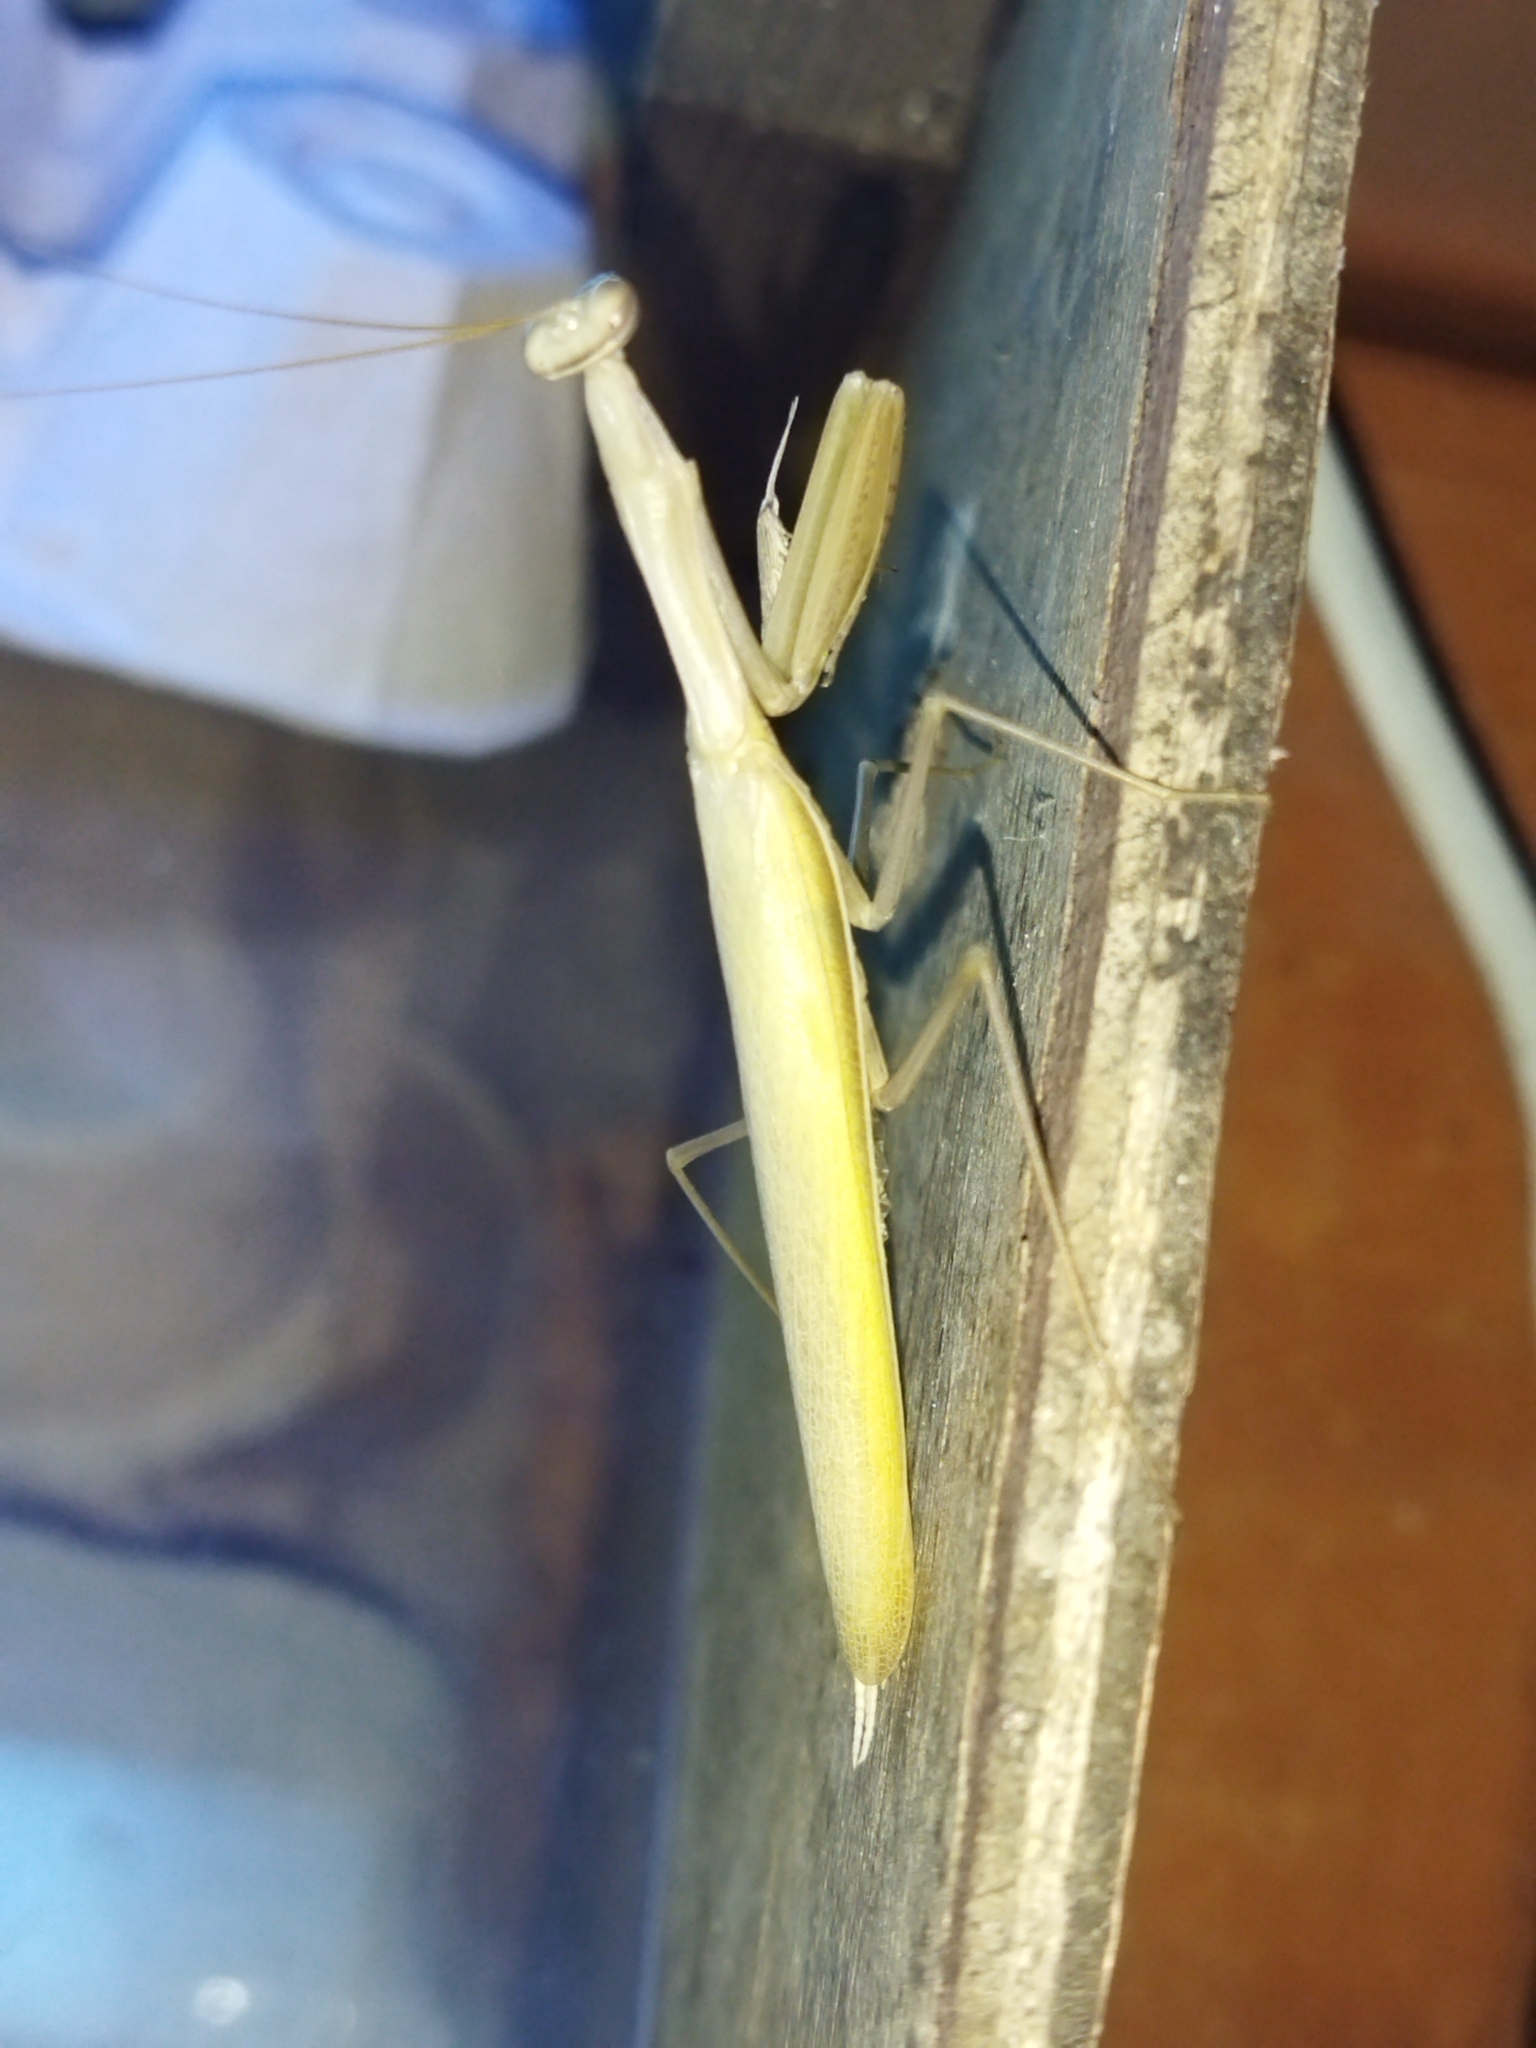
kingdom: Animalia
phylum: Arthropoda
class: Insecta
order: Mantodea
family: Mantidae
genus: Mantis
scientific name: Mantis religiosa
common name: Praying mantis
